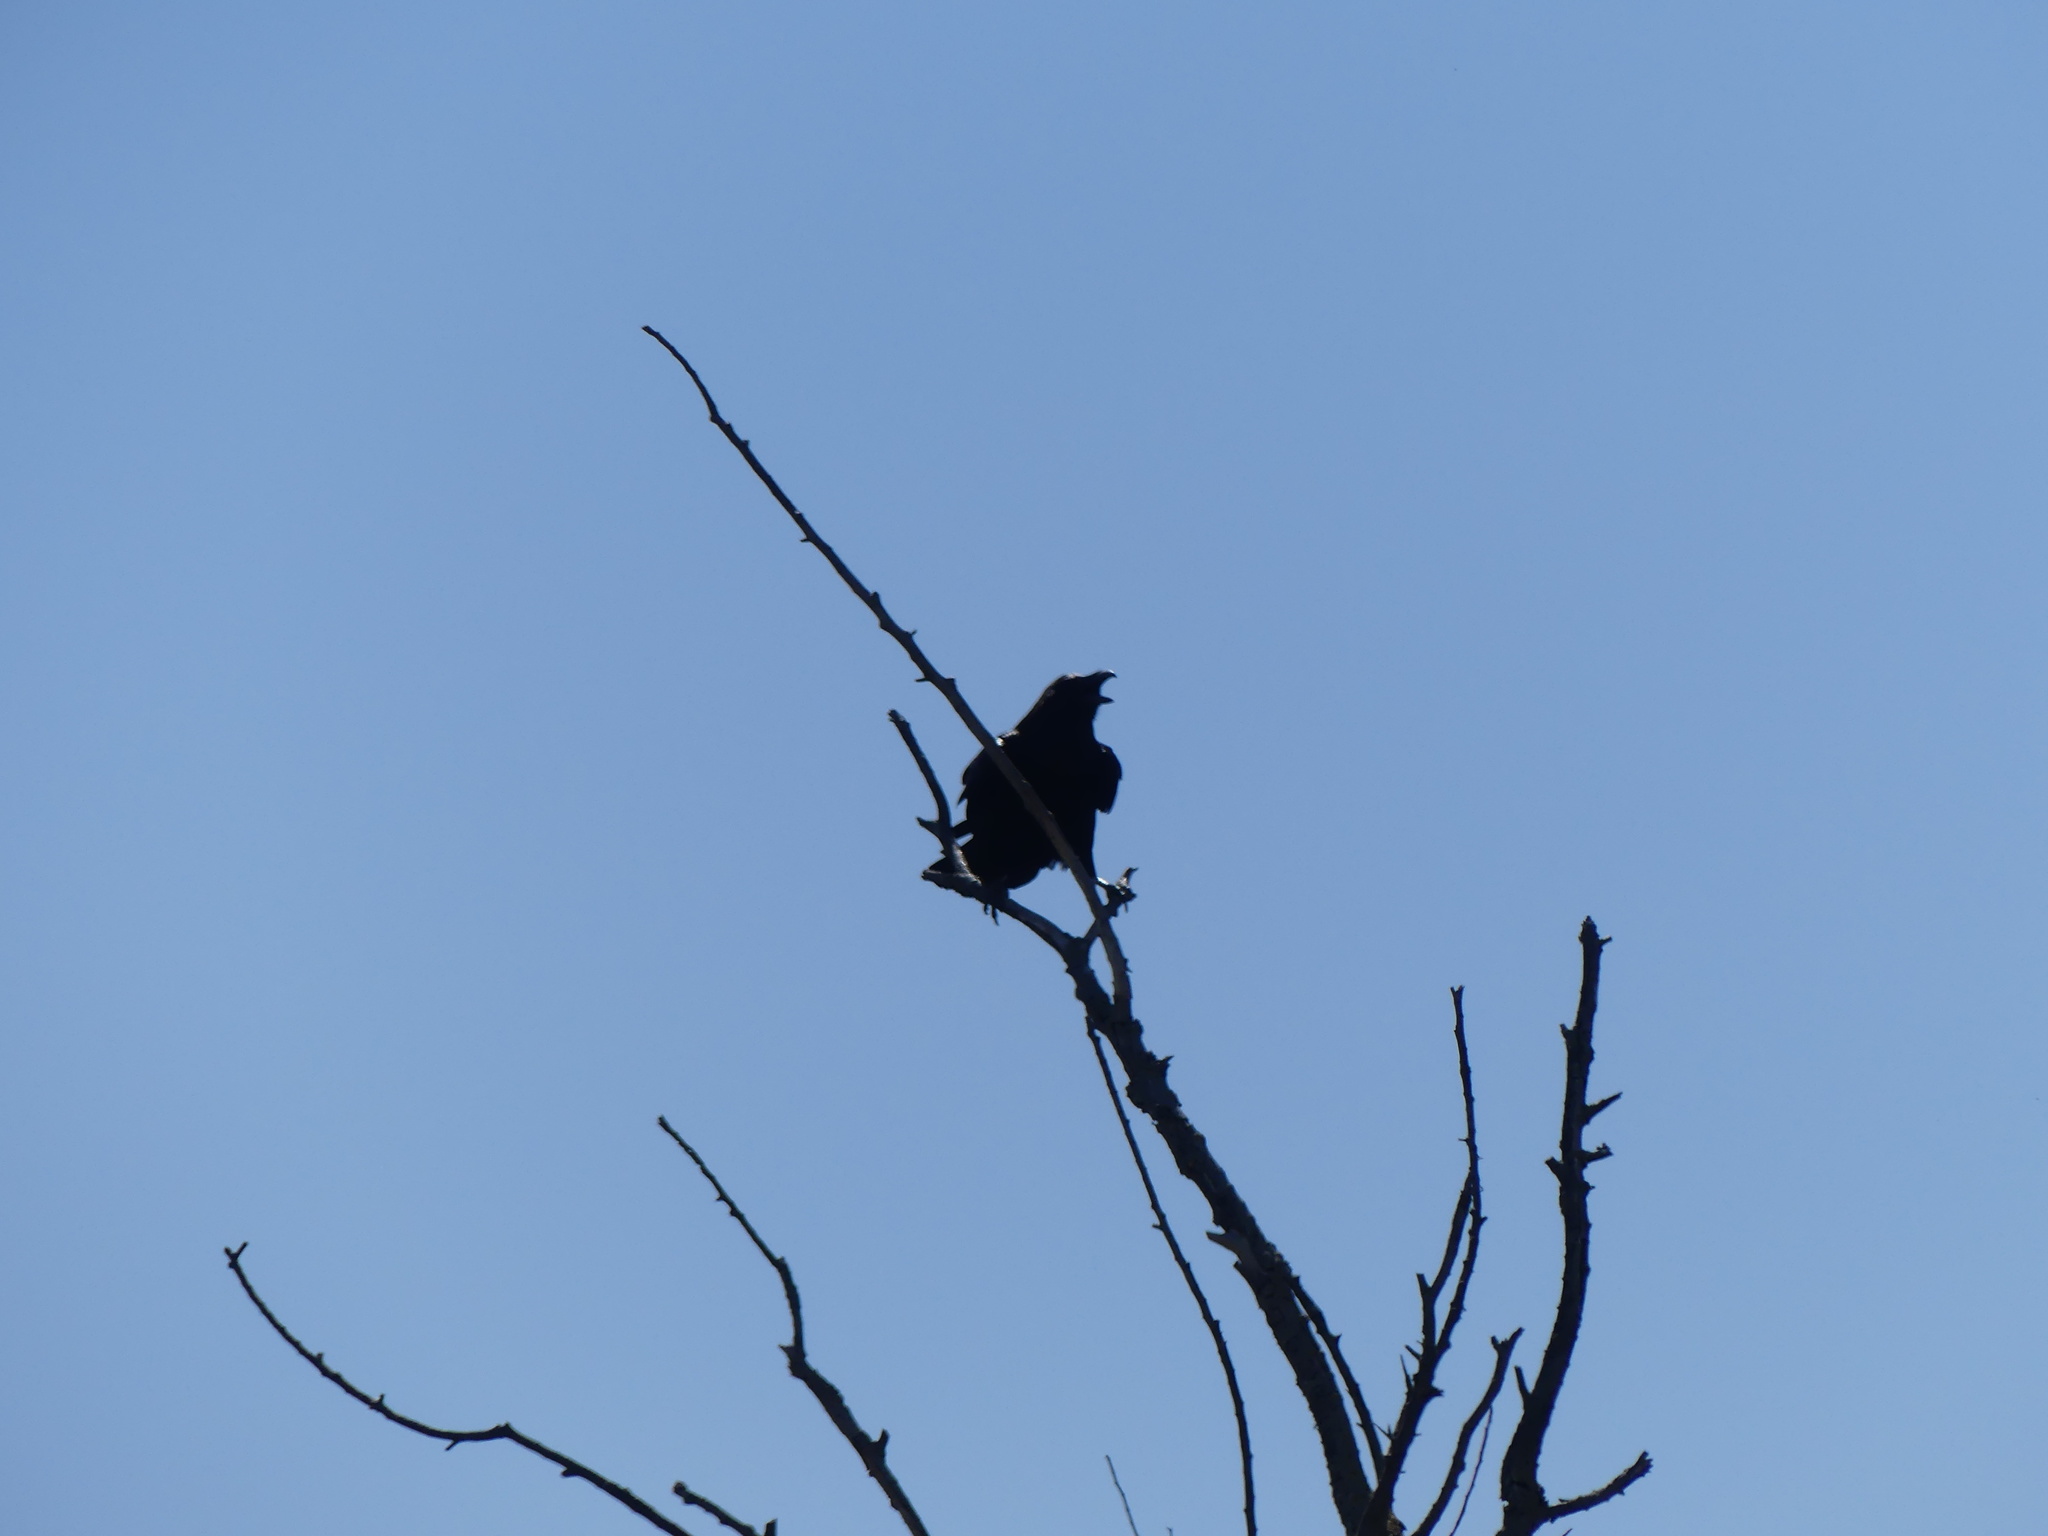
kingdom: Animalia
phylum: Chordata
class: Aves
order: Passeriformes
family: Corvidae
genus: Corvus
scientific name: Corvus corax
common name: Common raven
